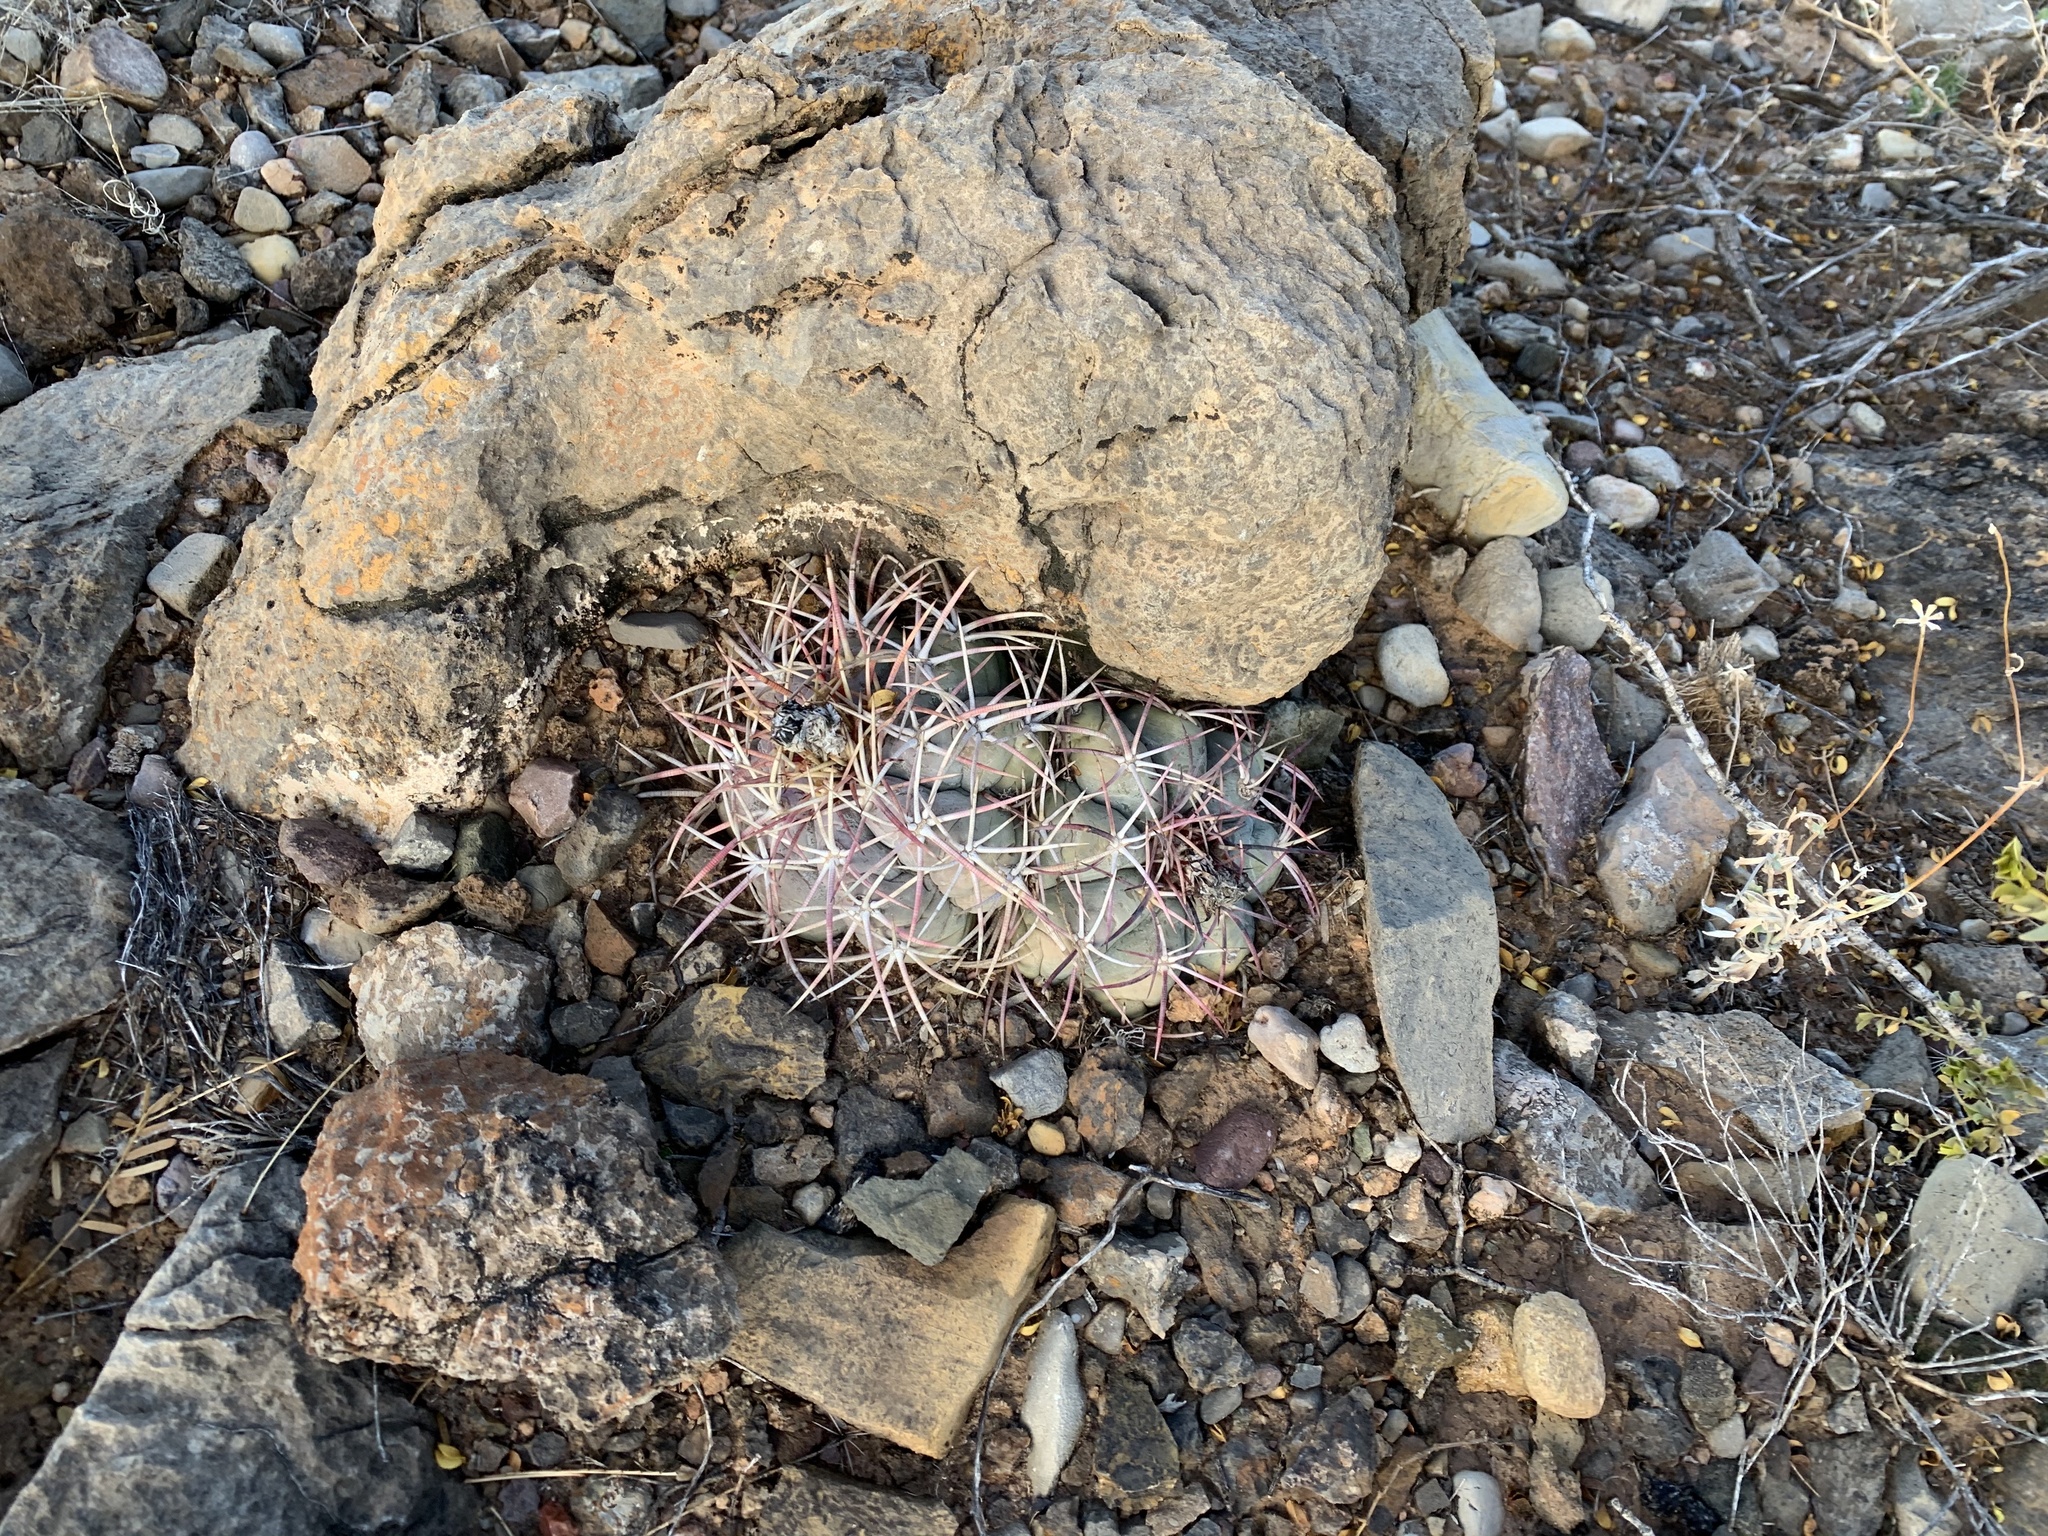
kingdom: Plantae
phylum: Tracheophyta
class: Magnoliopsida
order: Caryophyllales
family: Cactaceae
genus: Echinocactus
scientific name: Echinocactus horizonthalonius
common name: Devilshead
